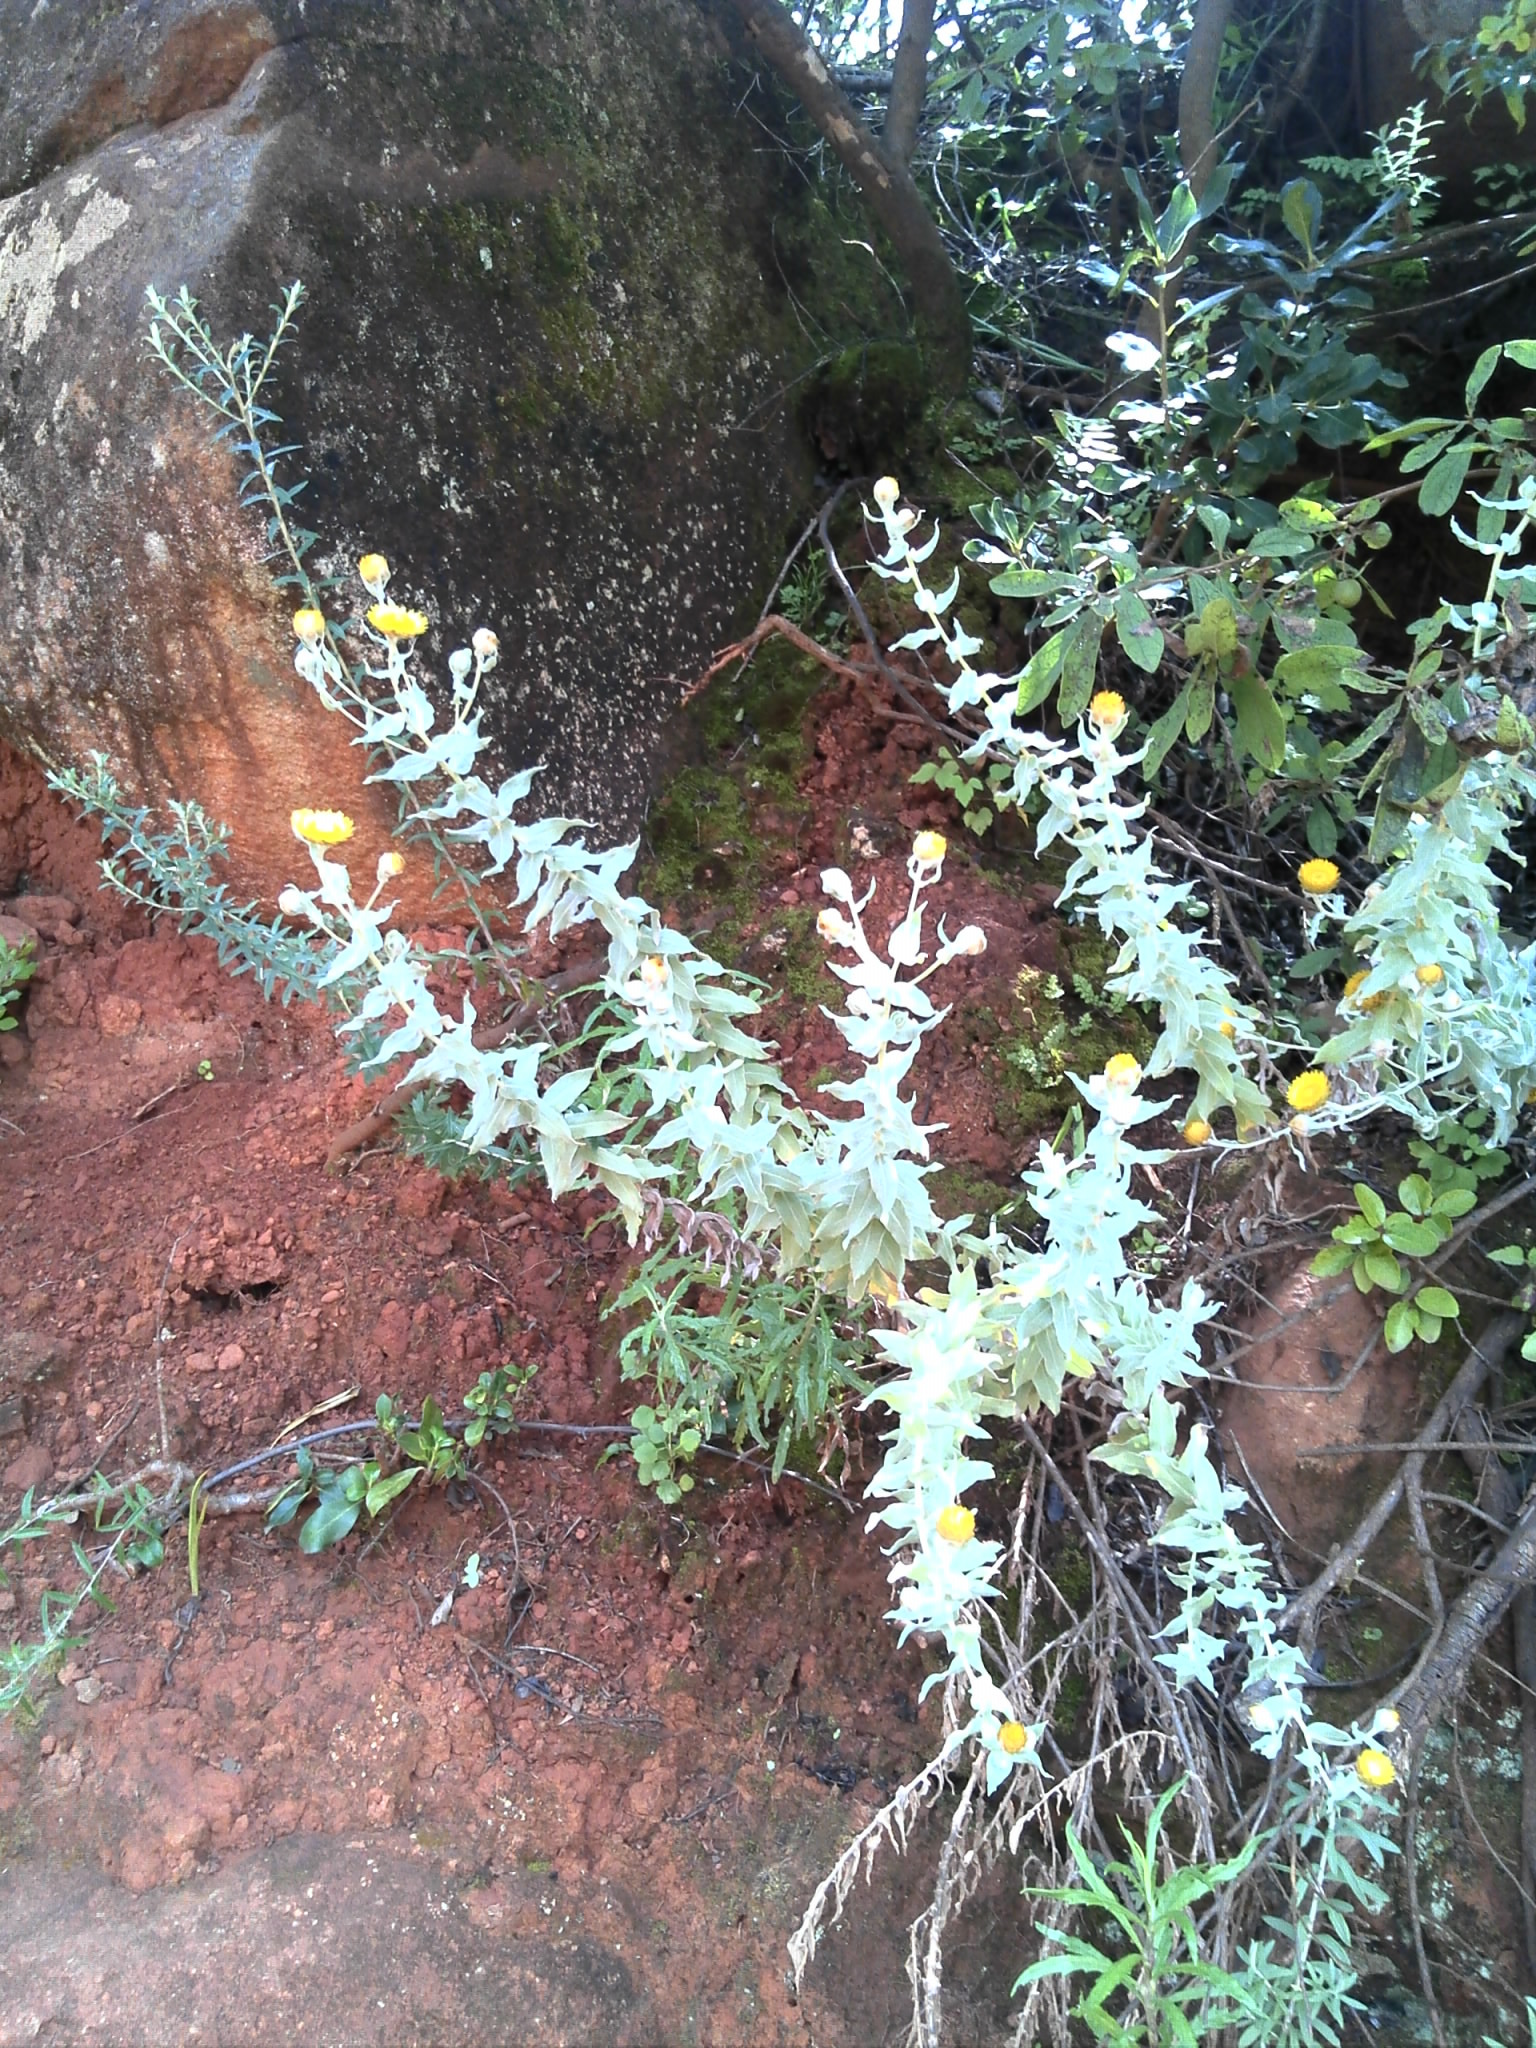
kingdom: Plantae
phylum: Tracheophyta
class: Magnoliopsida
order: Asterales
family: Asteraceae
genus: Helichrysum
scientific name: Helichrysum albilanatum
